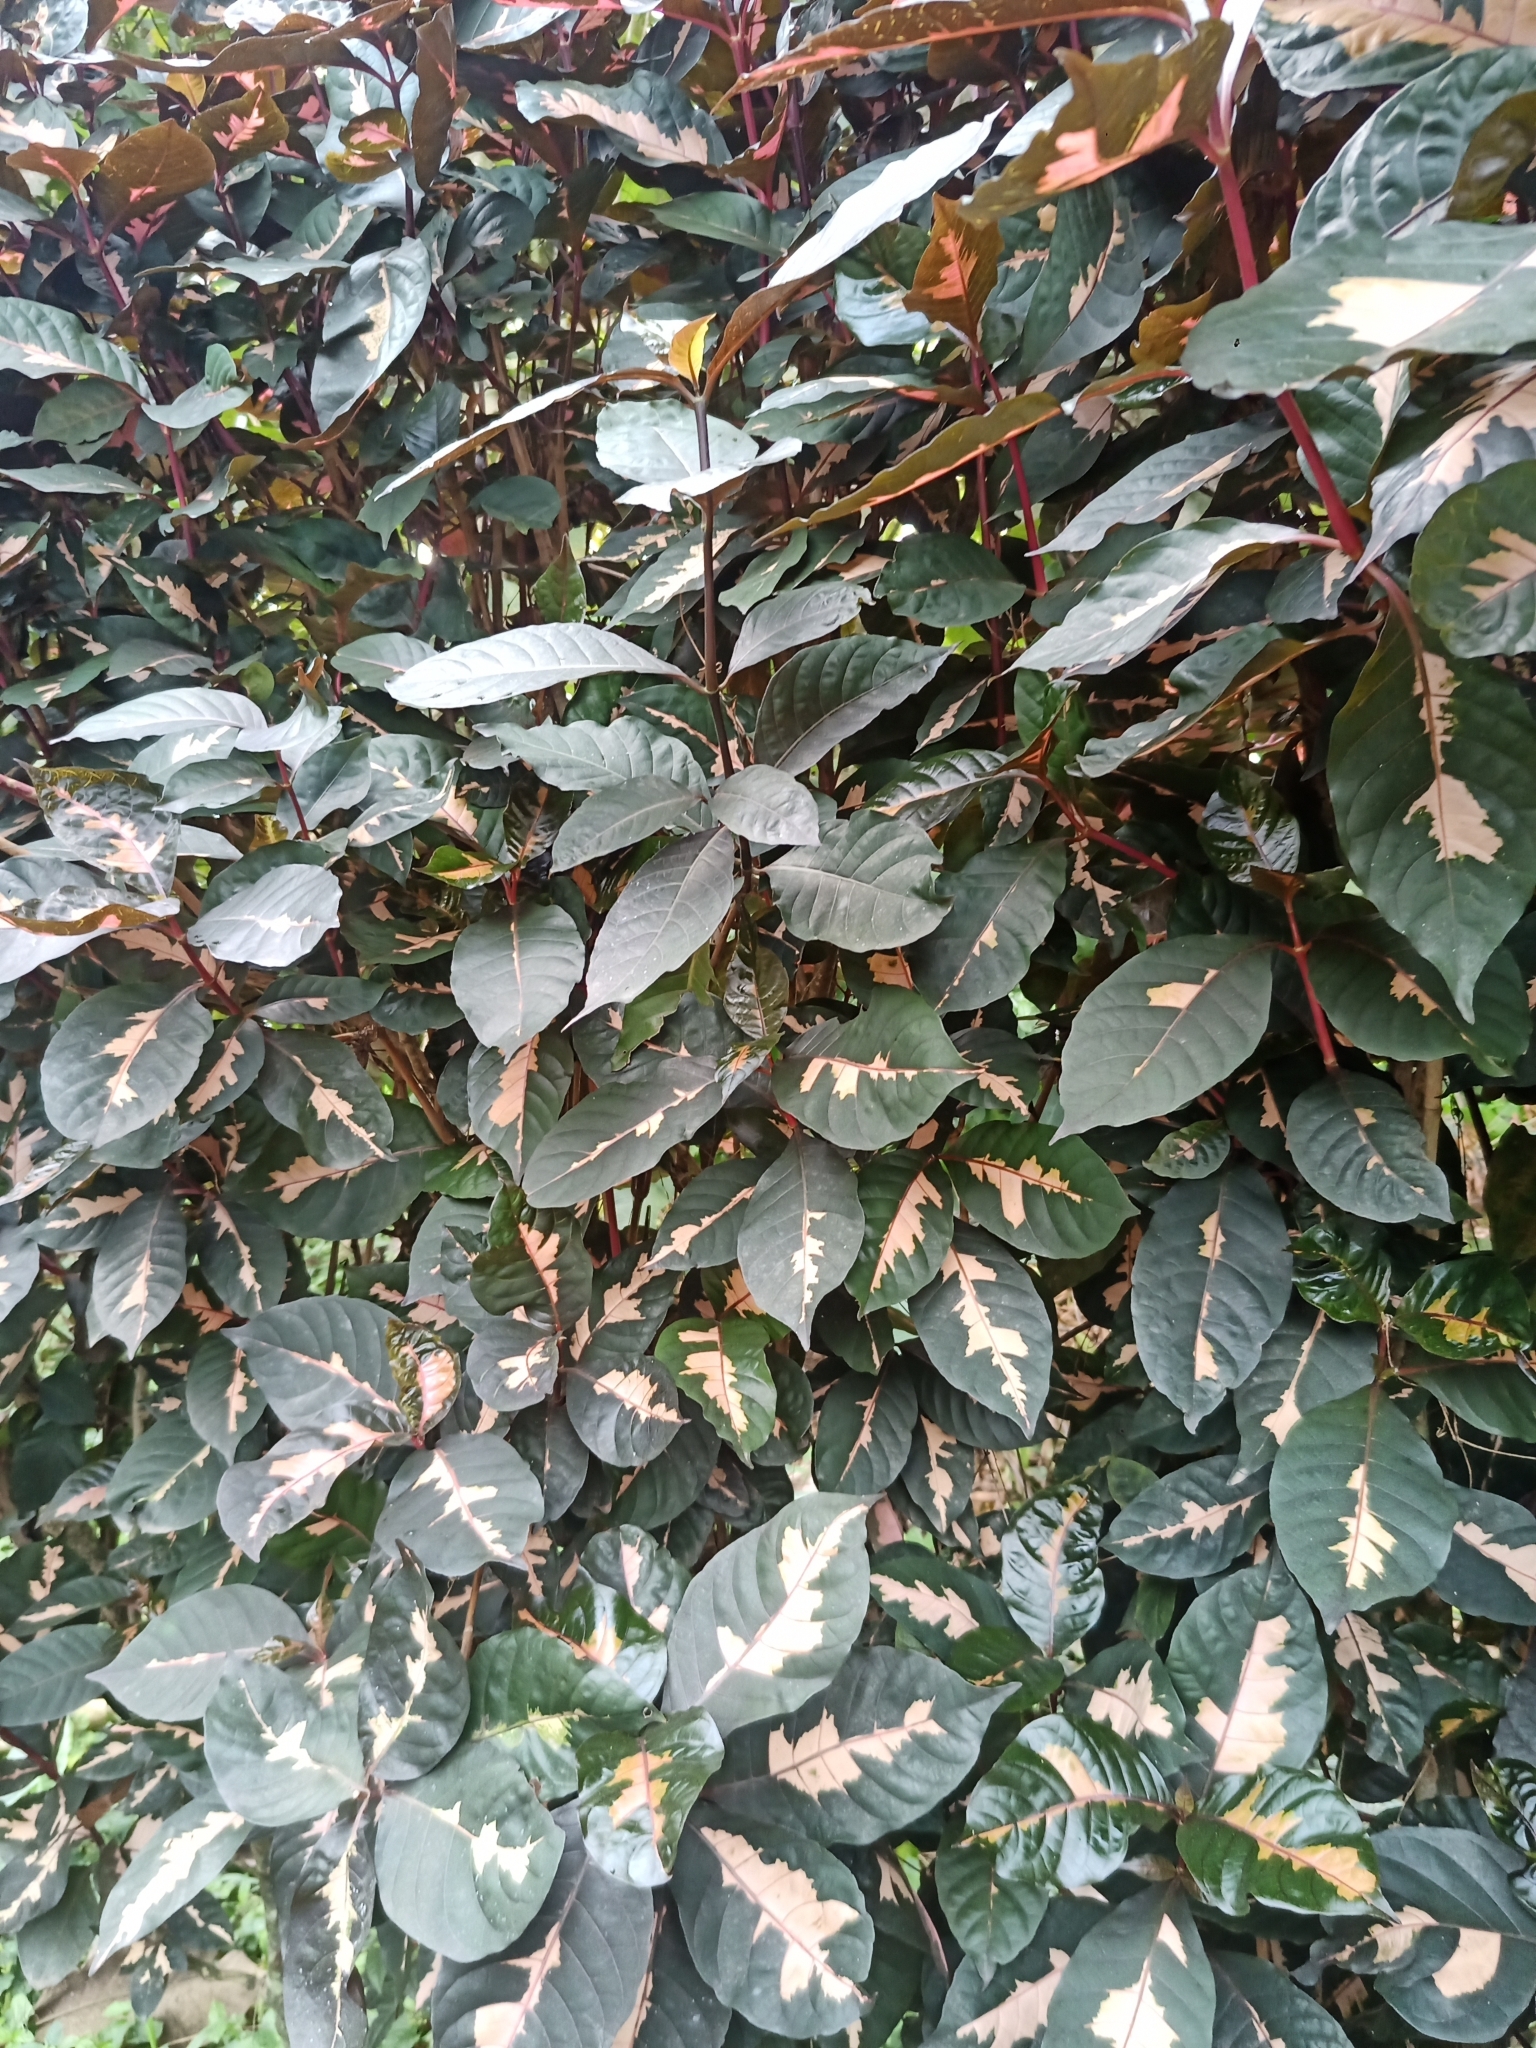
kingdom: Plantae
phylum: Tracheophyta
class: Magnoliopsida
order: Lamiales
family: Acanthaceae
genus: Graptophyllum
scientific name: Graptophyllum pictum
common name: Caricature-plant
